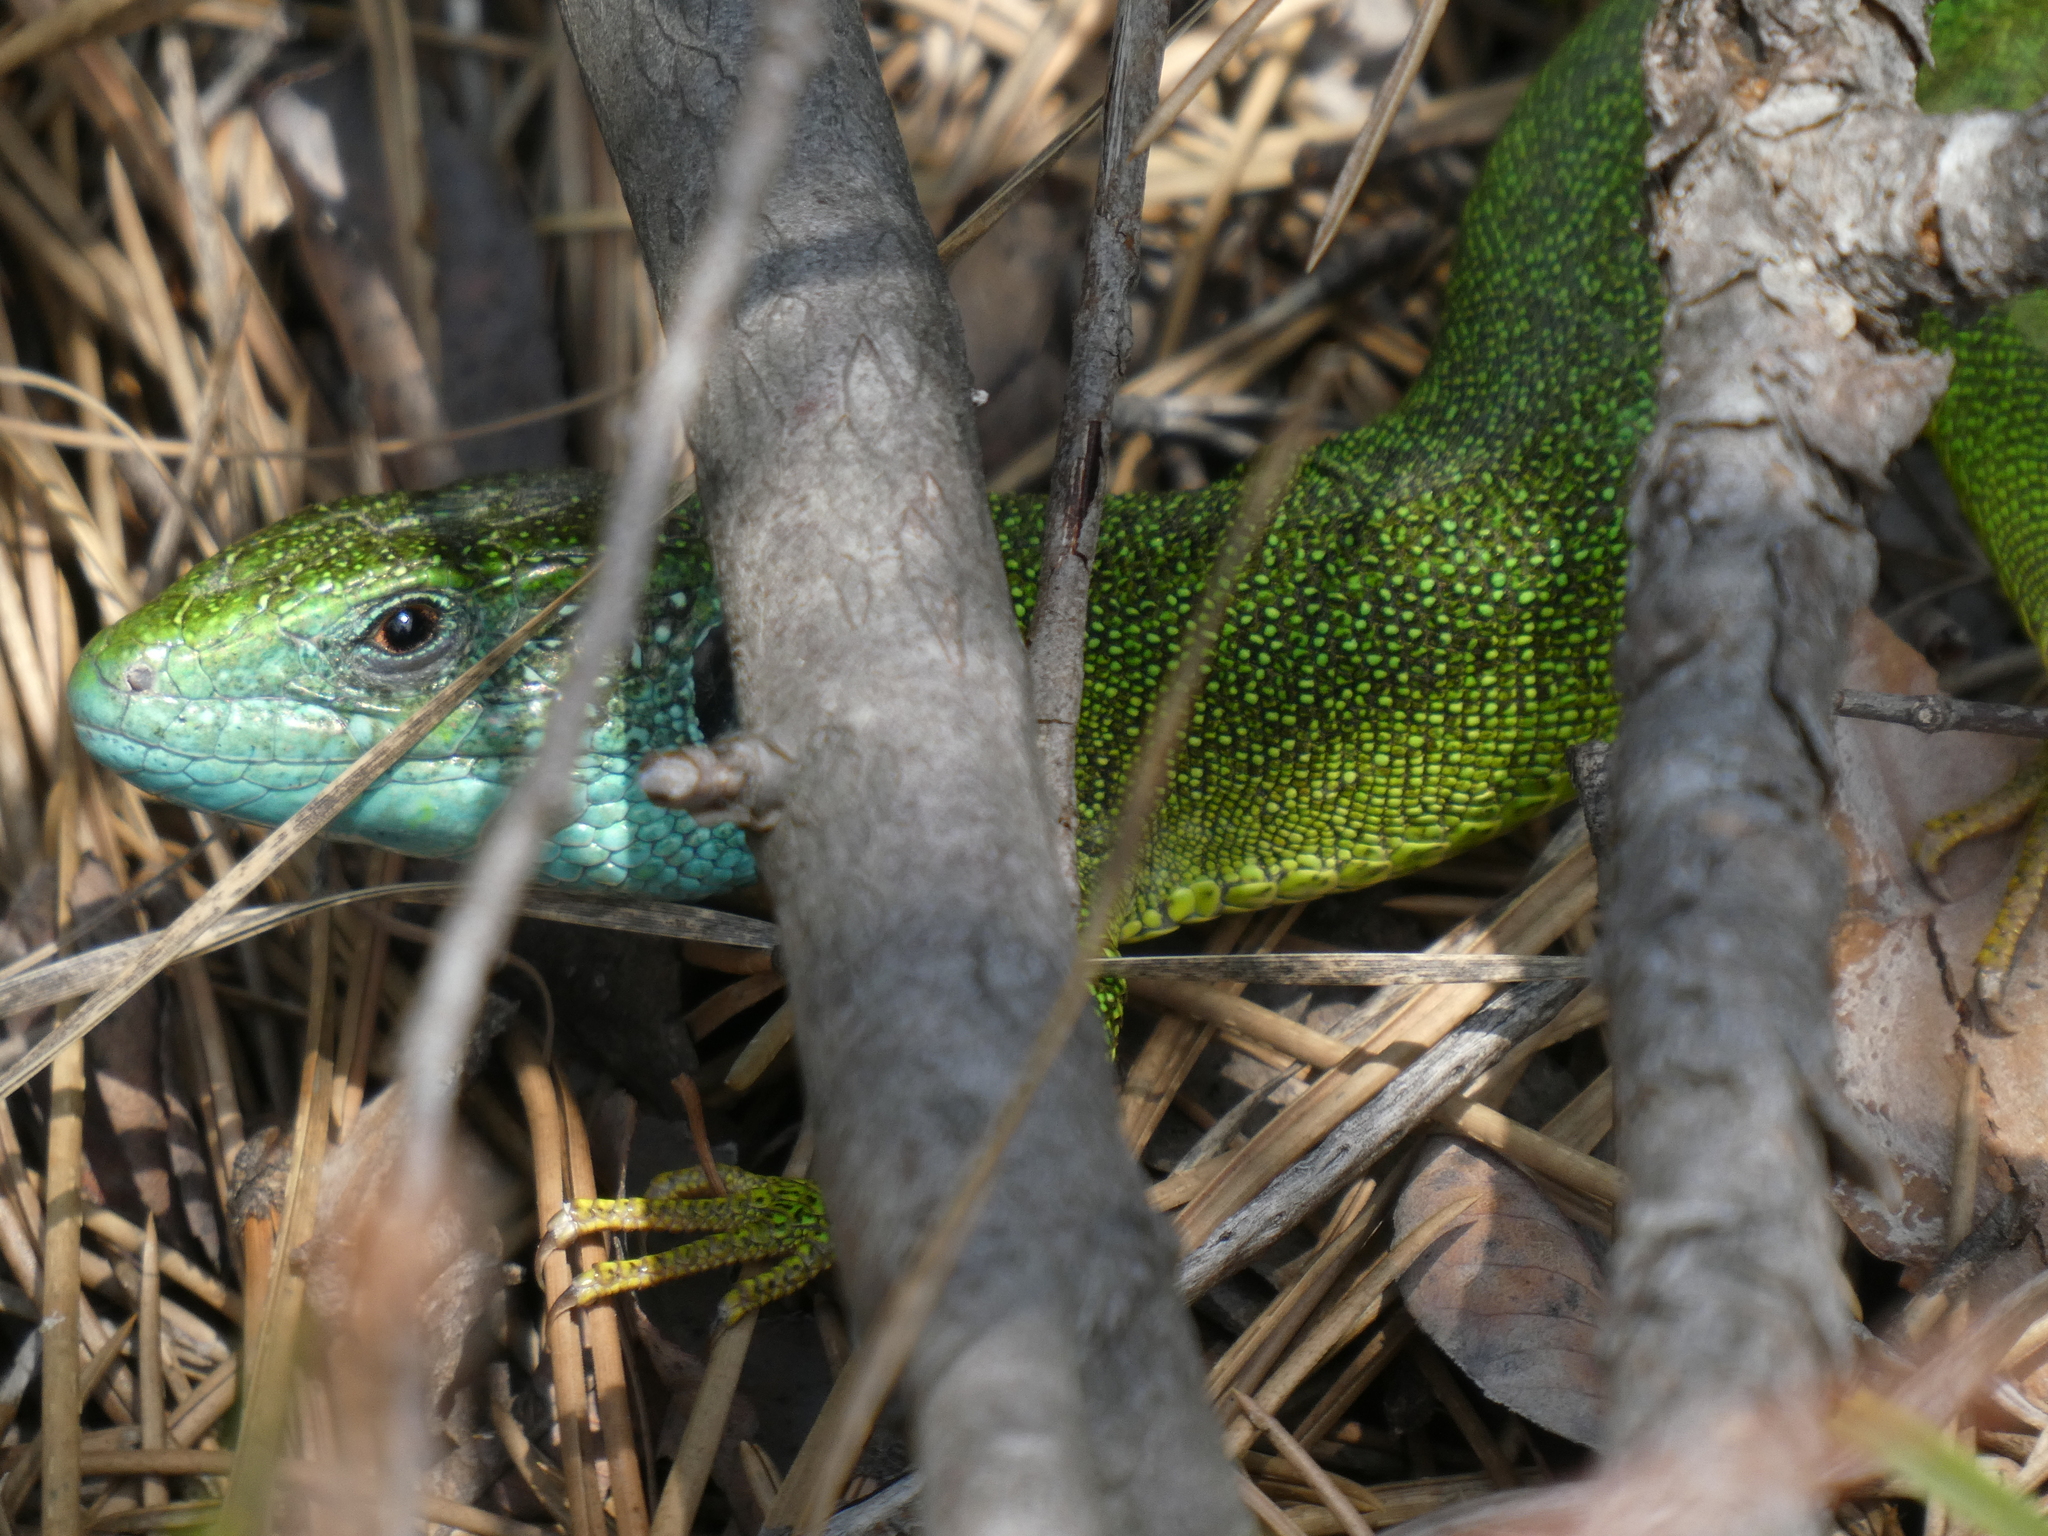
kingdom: Animalia
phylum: Chordata
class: Squamata
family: Lacertidae
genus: Lacerta
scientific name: Lacerta viridis
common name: European green lizard
